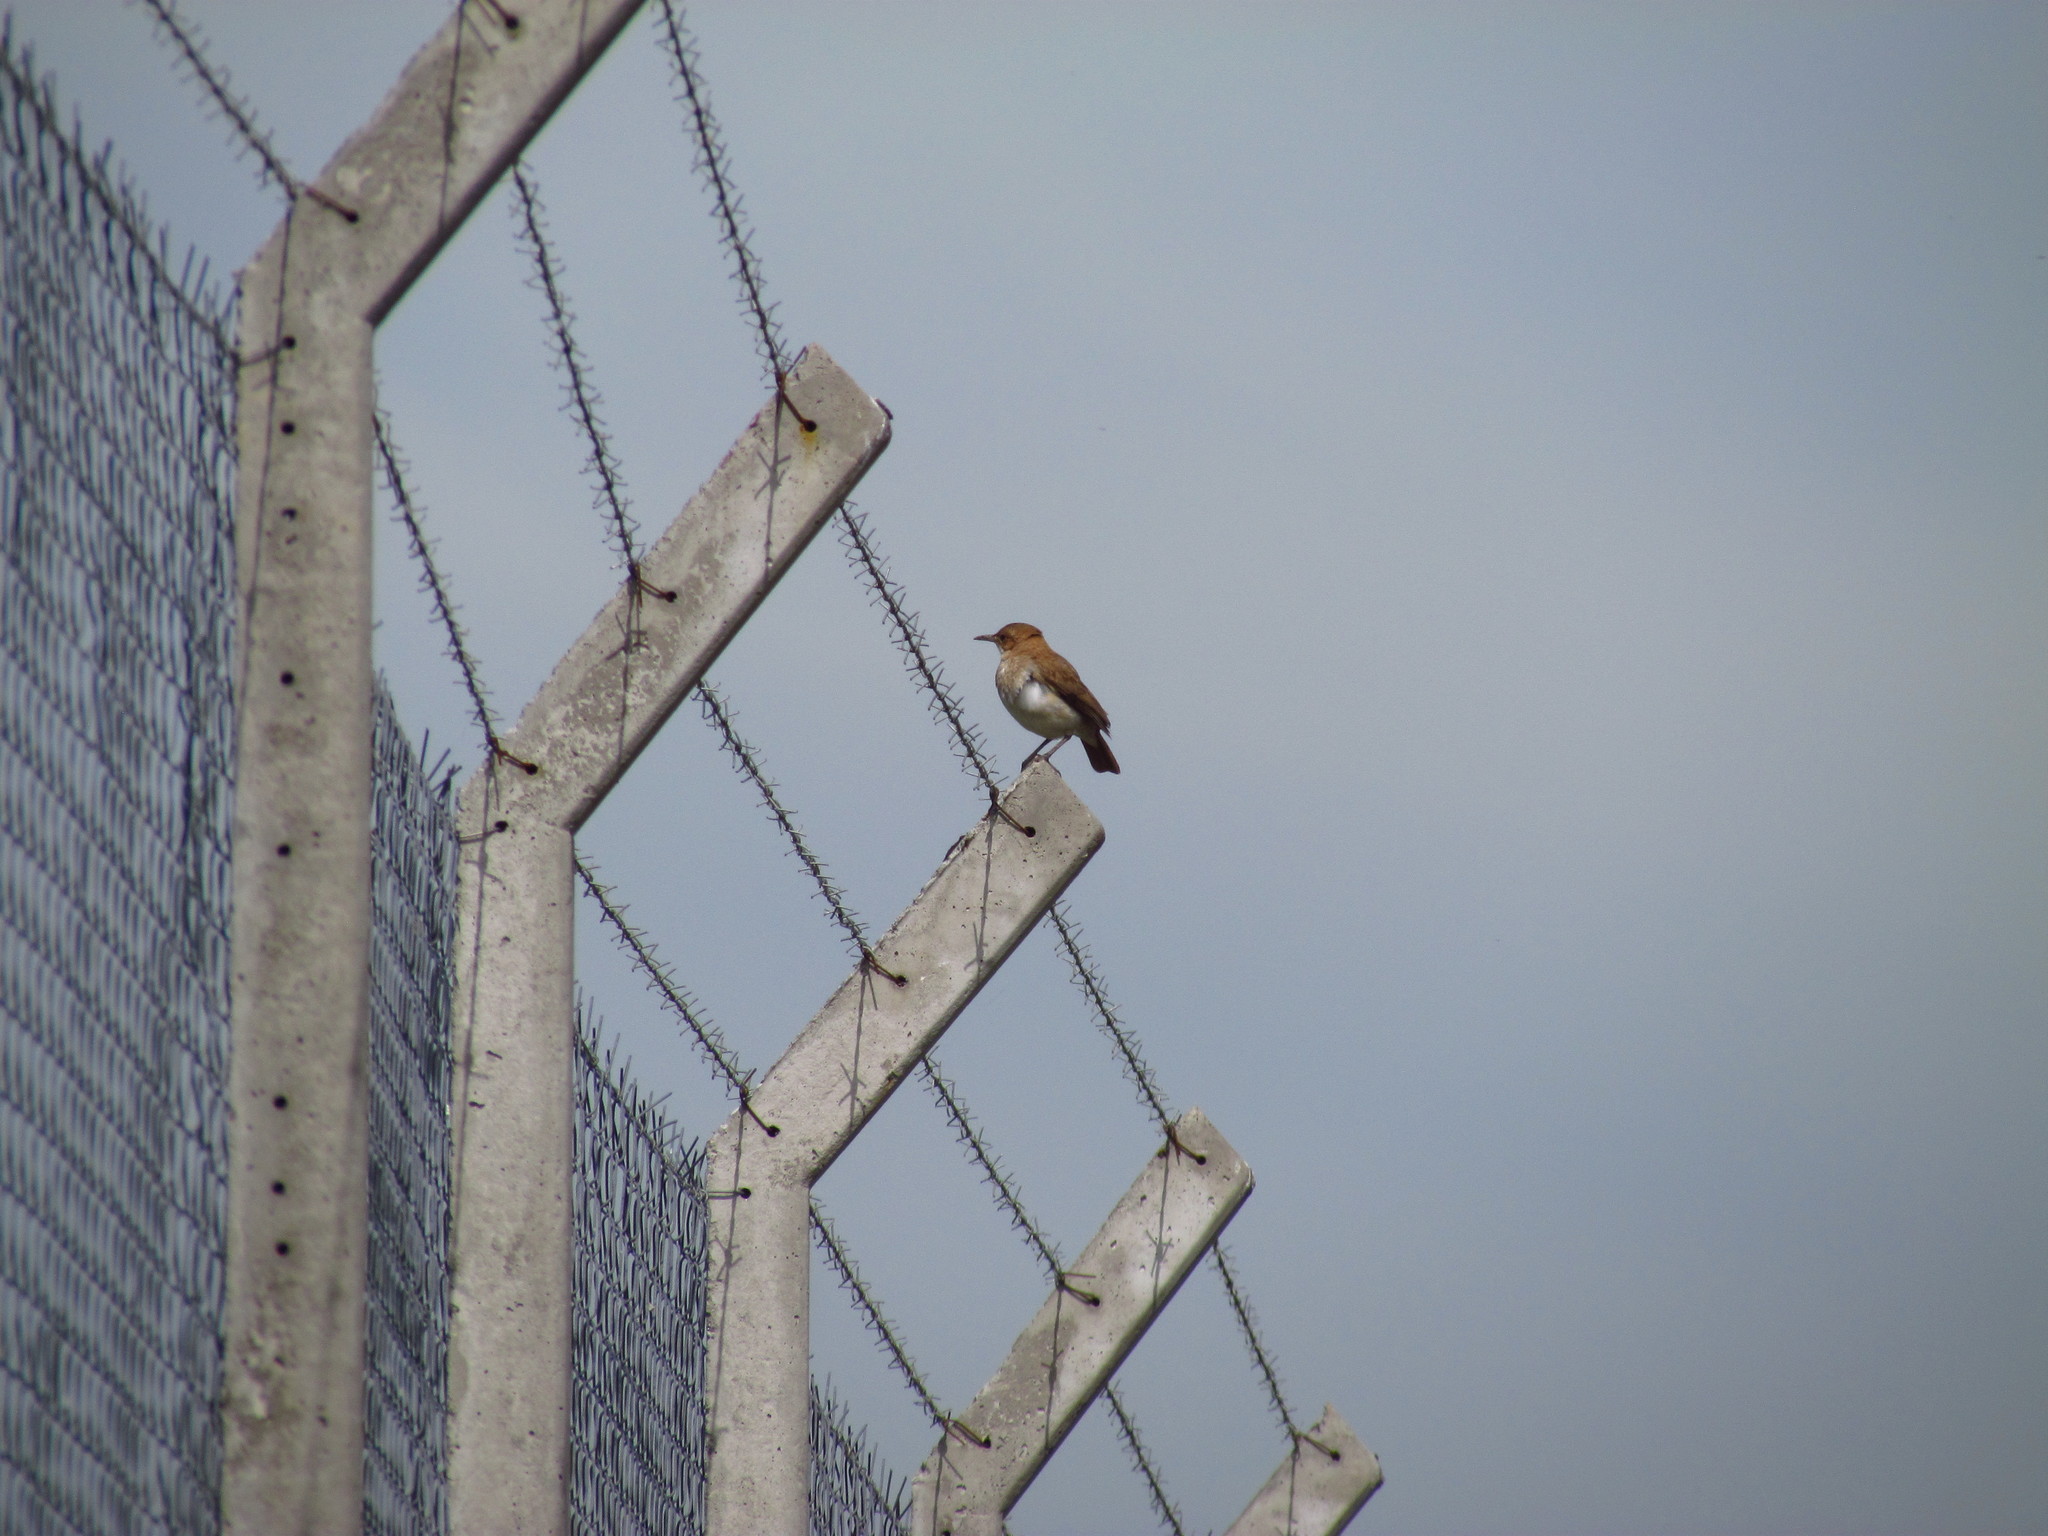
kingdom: Animalia
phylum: Chordata
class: Aves
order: Passeriformes
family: Furnariidae
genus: Furnarius
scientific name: Furnarius rufus
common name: Rufous hornero
